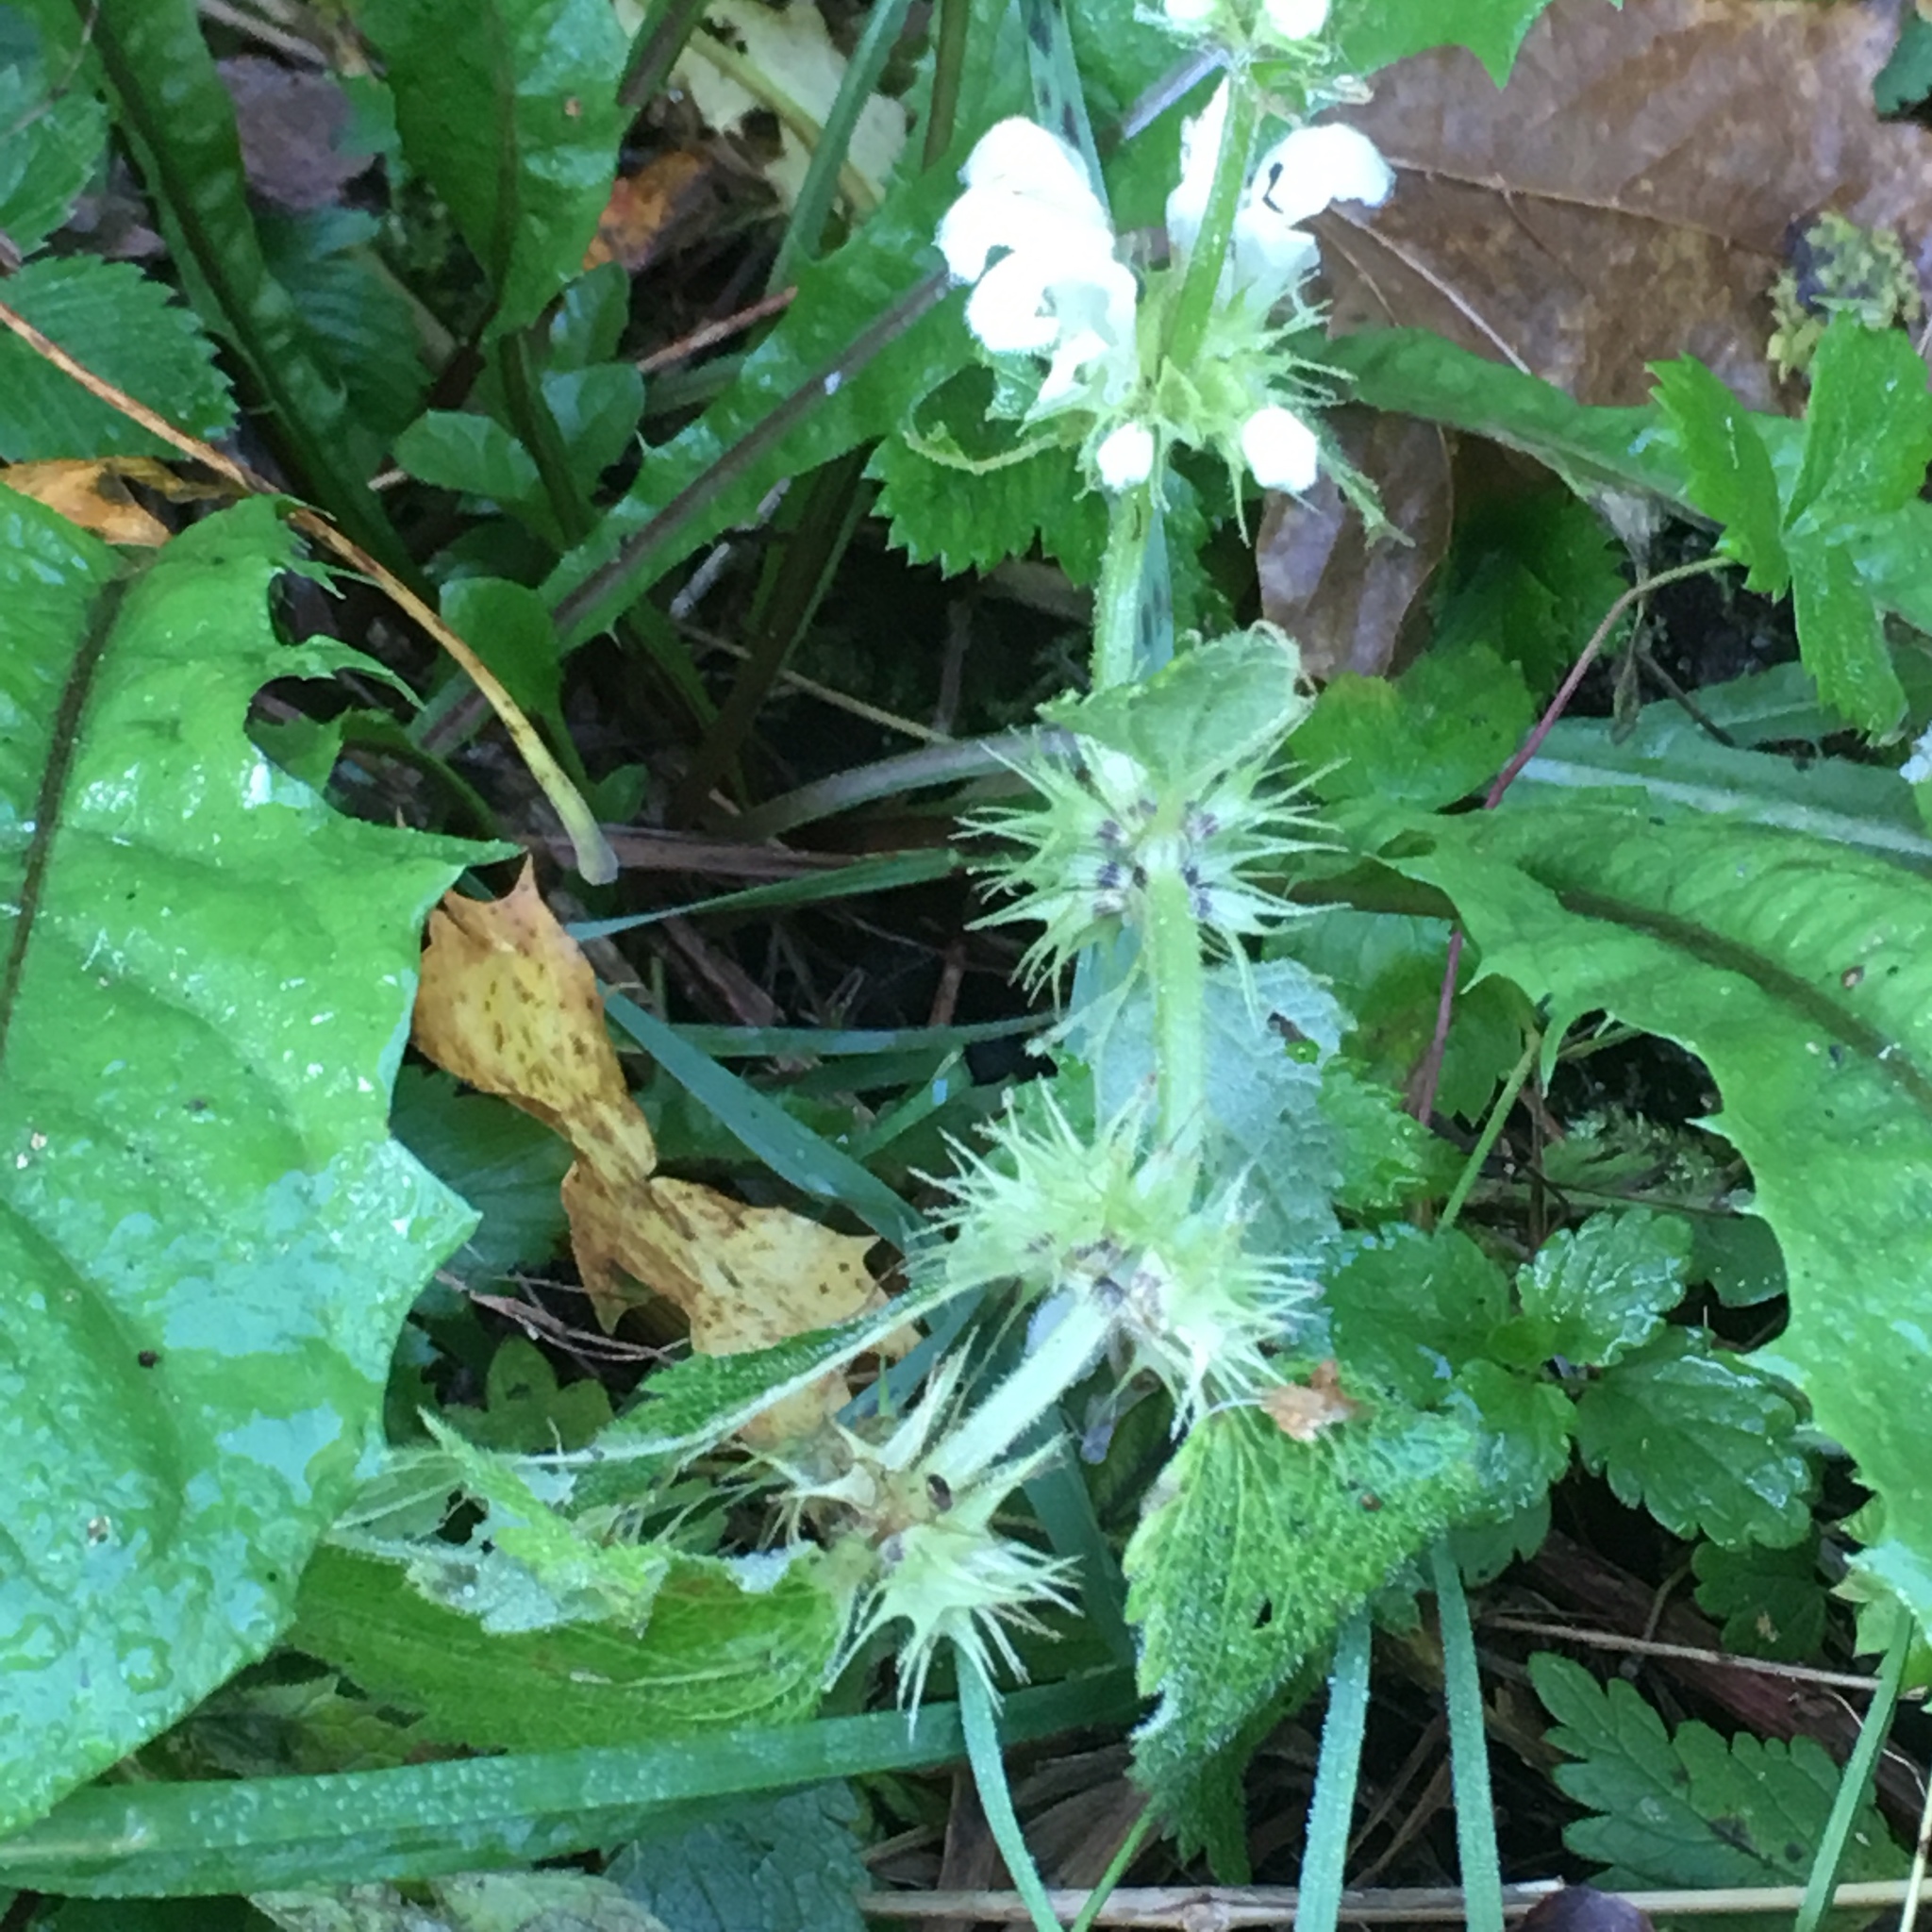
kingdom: Plantae
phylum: Tracheophyta
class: Magnoliopsida
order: Lamiales
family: Lamiaceae
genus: Lamium
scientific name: Lamium album
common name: White dead-nettle
